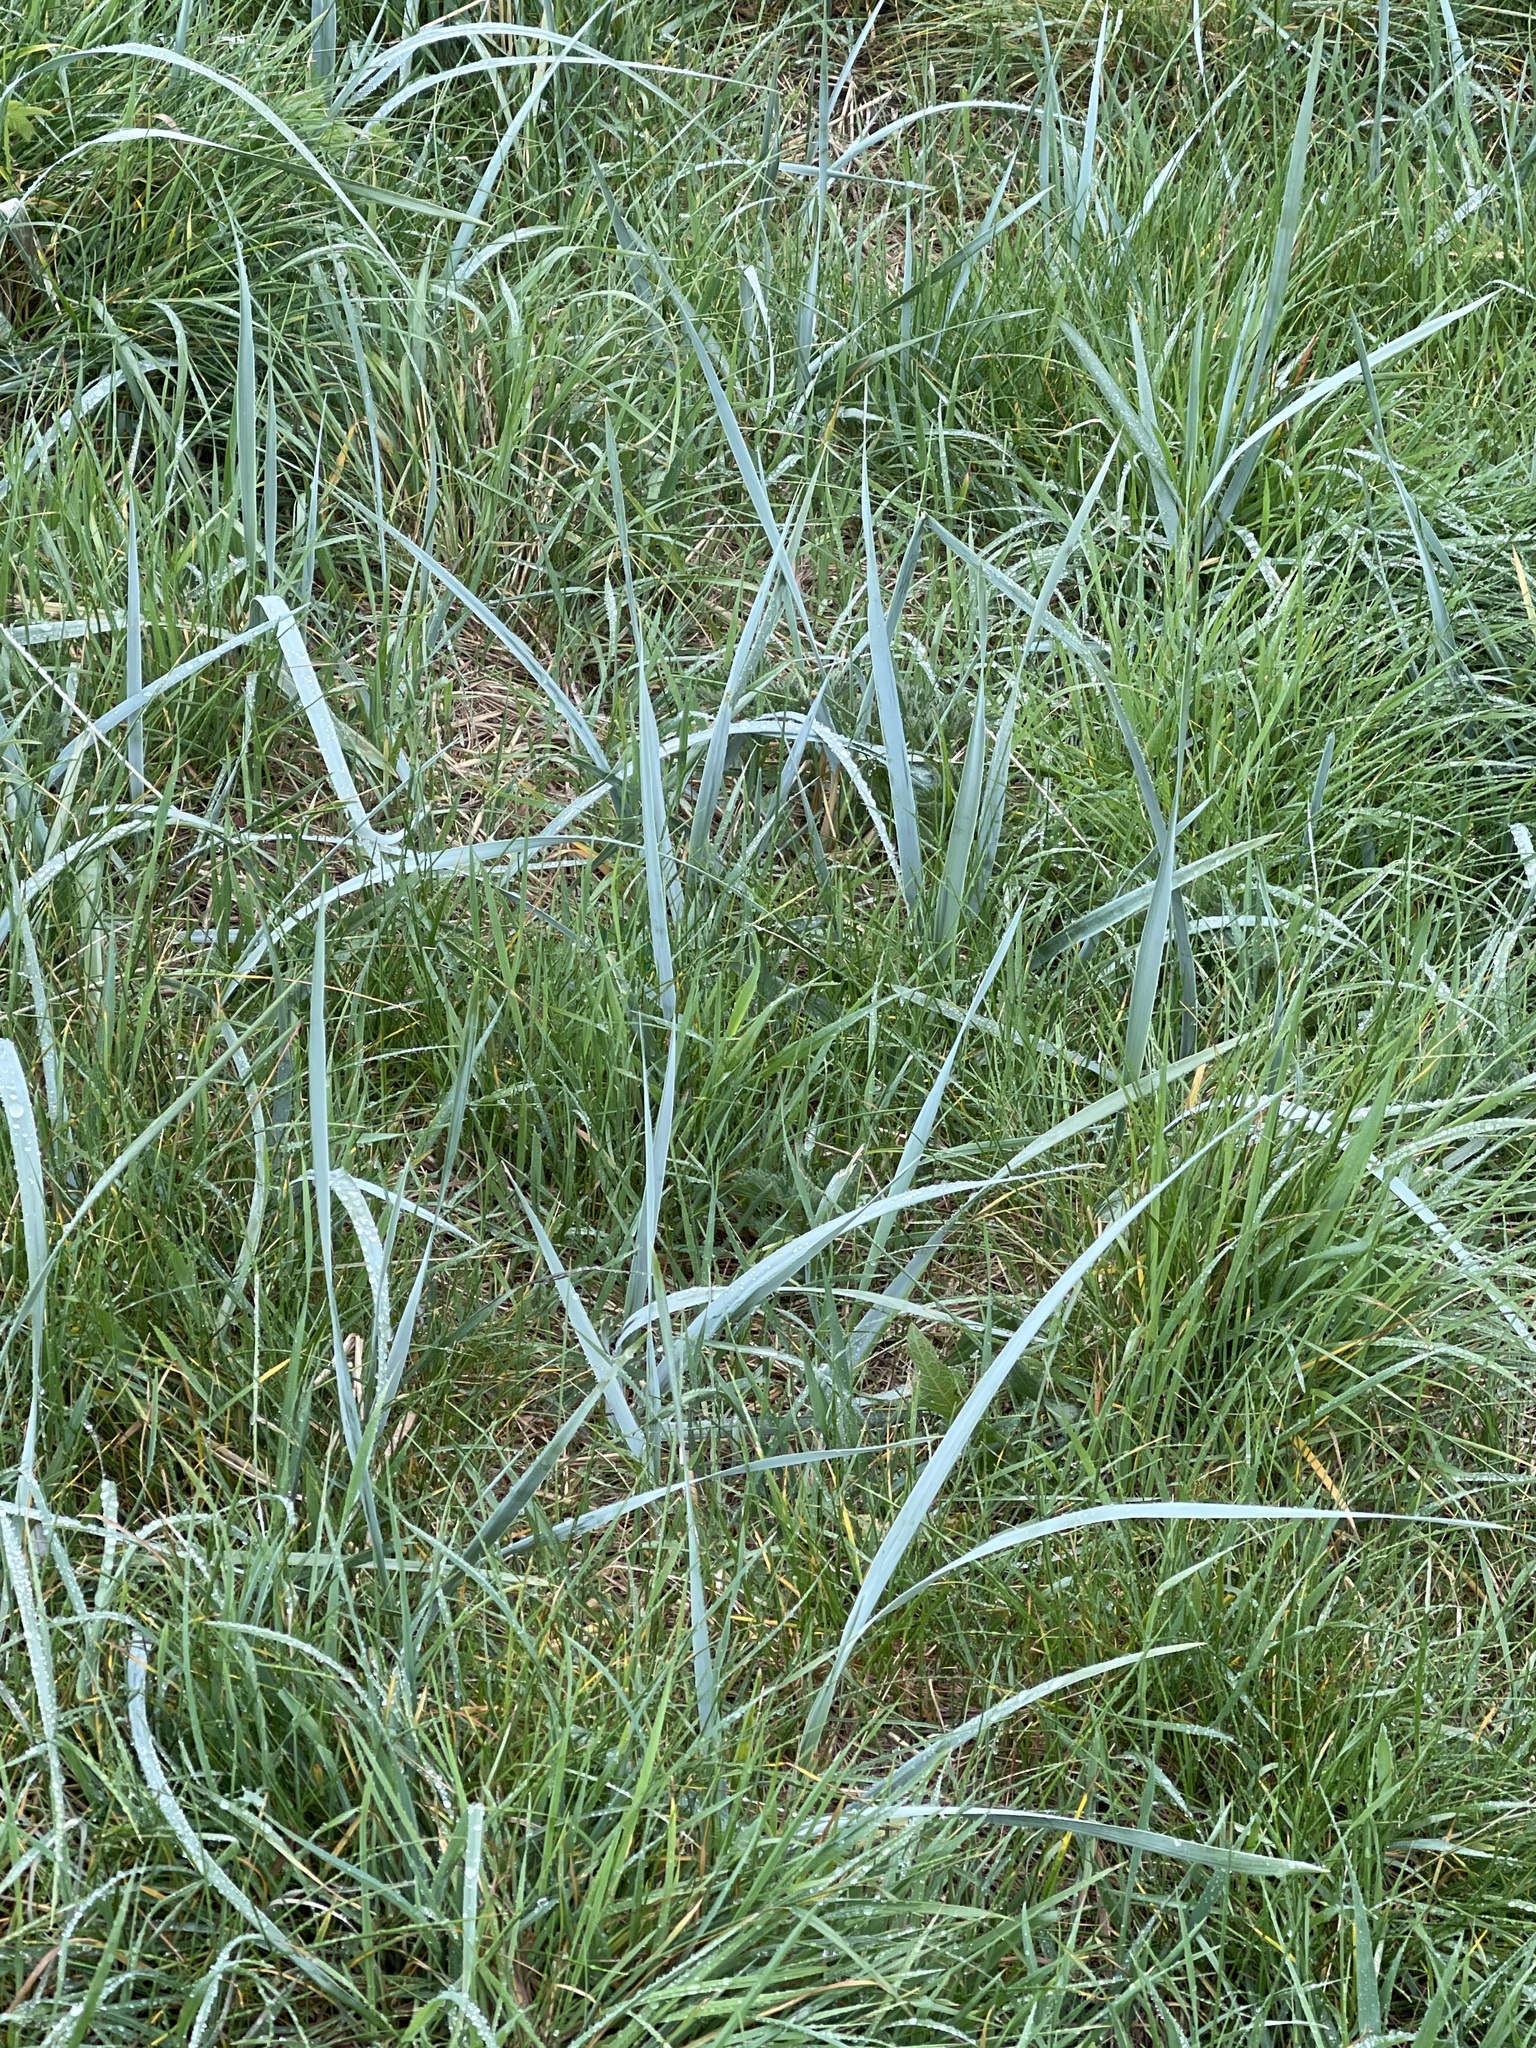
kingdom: Plantae
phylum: Tracheophyta
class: Liliopsida
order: Poales
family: Poaceae
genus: Leymus
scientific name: Leymus arenarius
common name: Lyme-grass
